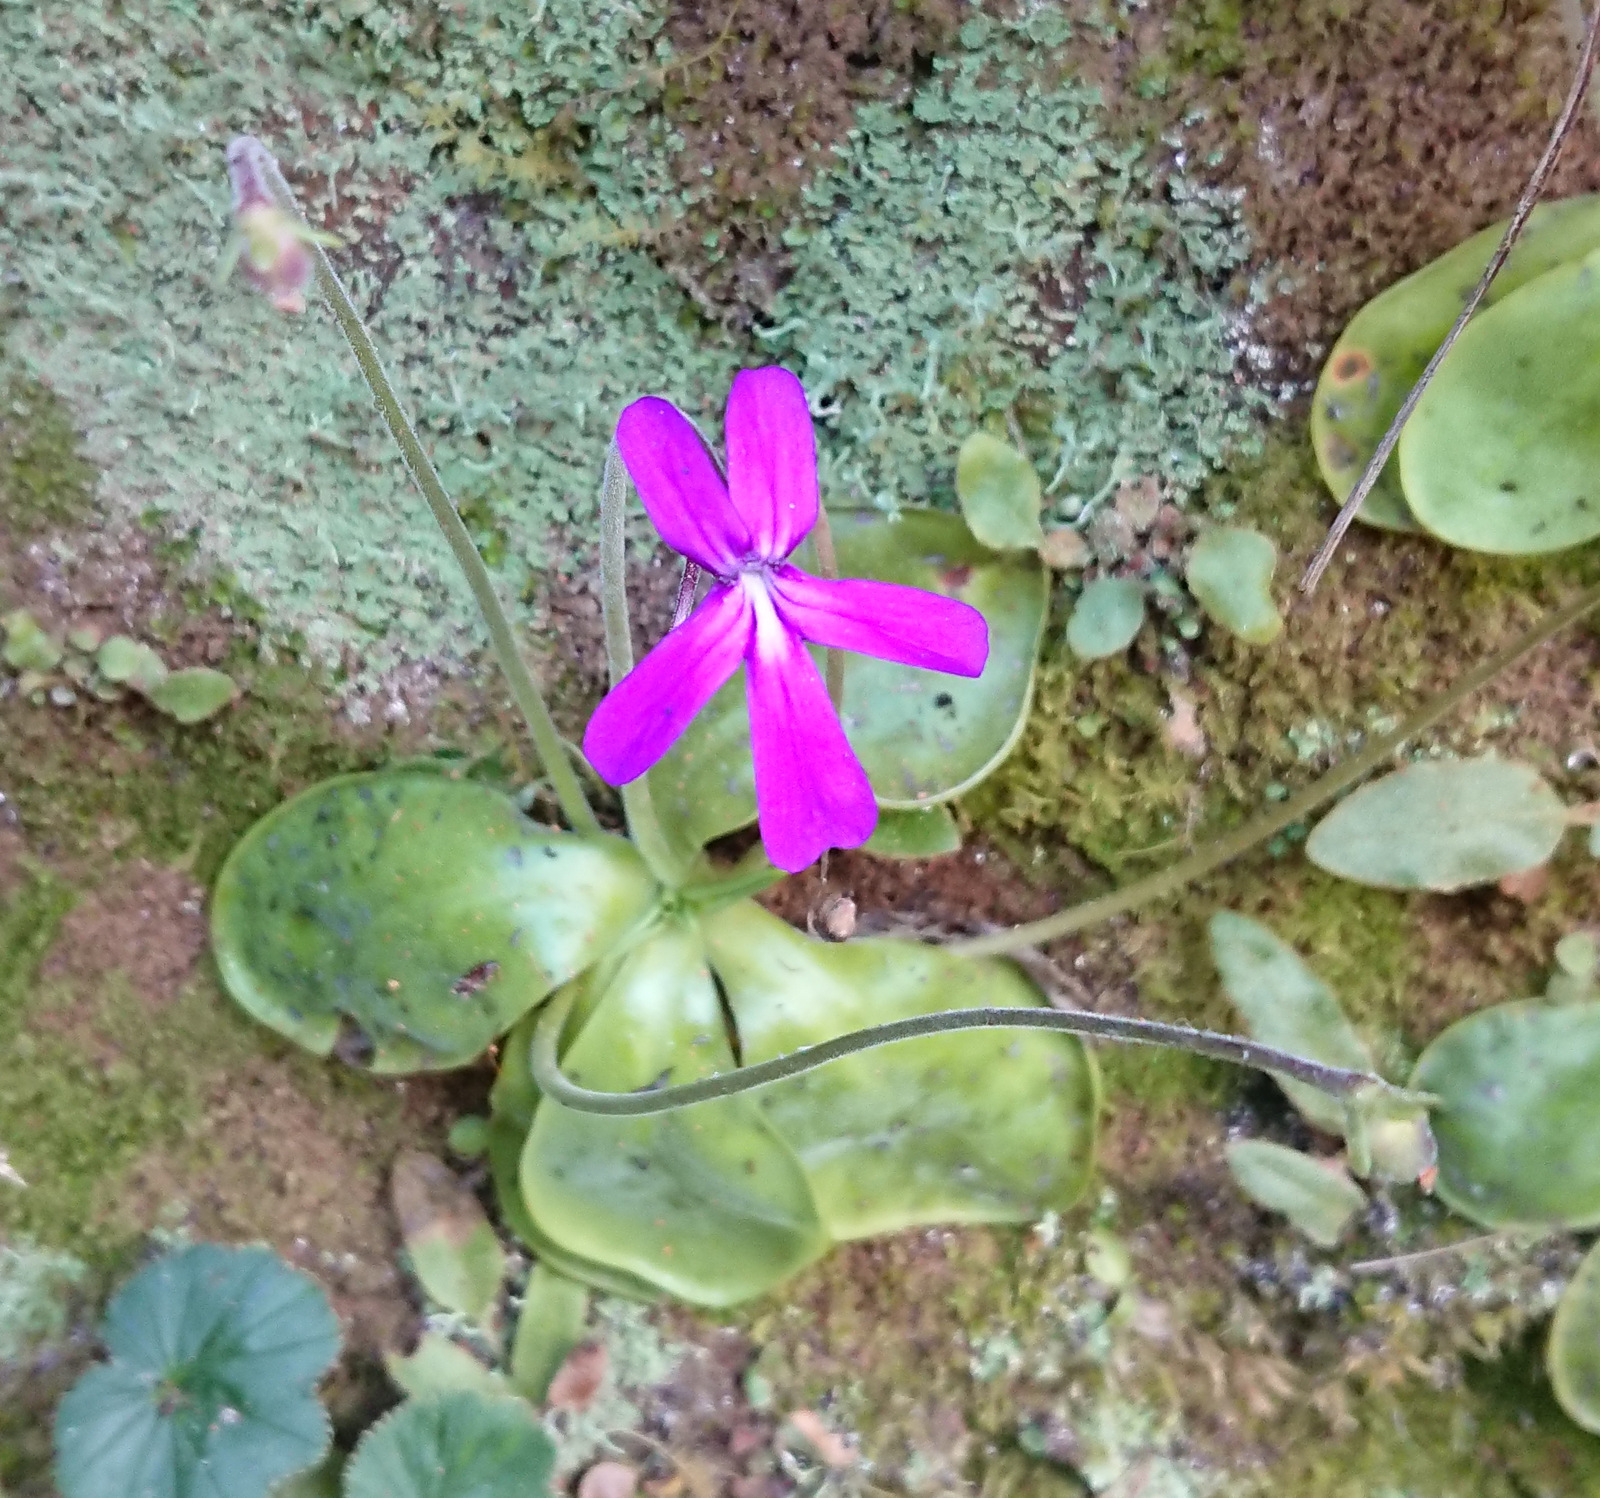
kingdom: Plantae
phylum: Tracheophyta
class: Magnoliopsida
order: Lamiales
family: Lentibulariaceae
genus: Pinguicula
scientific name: Pinguicula moranensis
